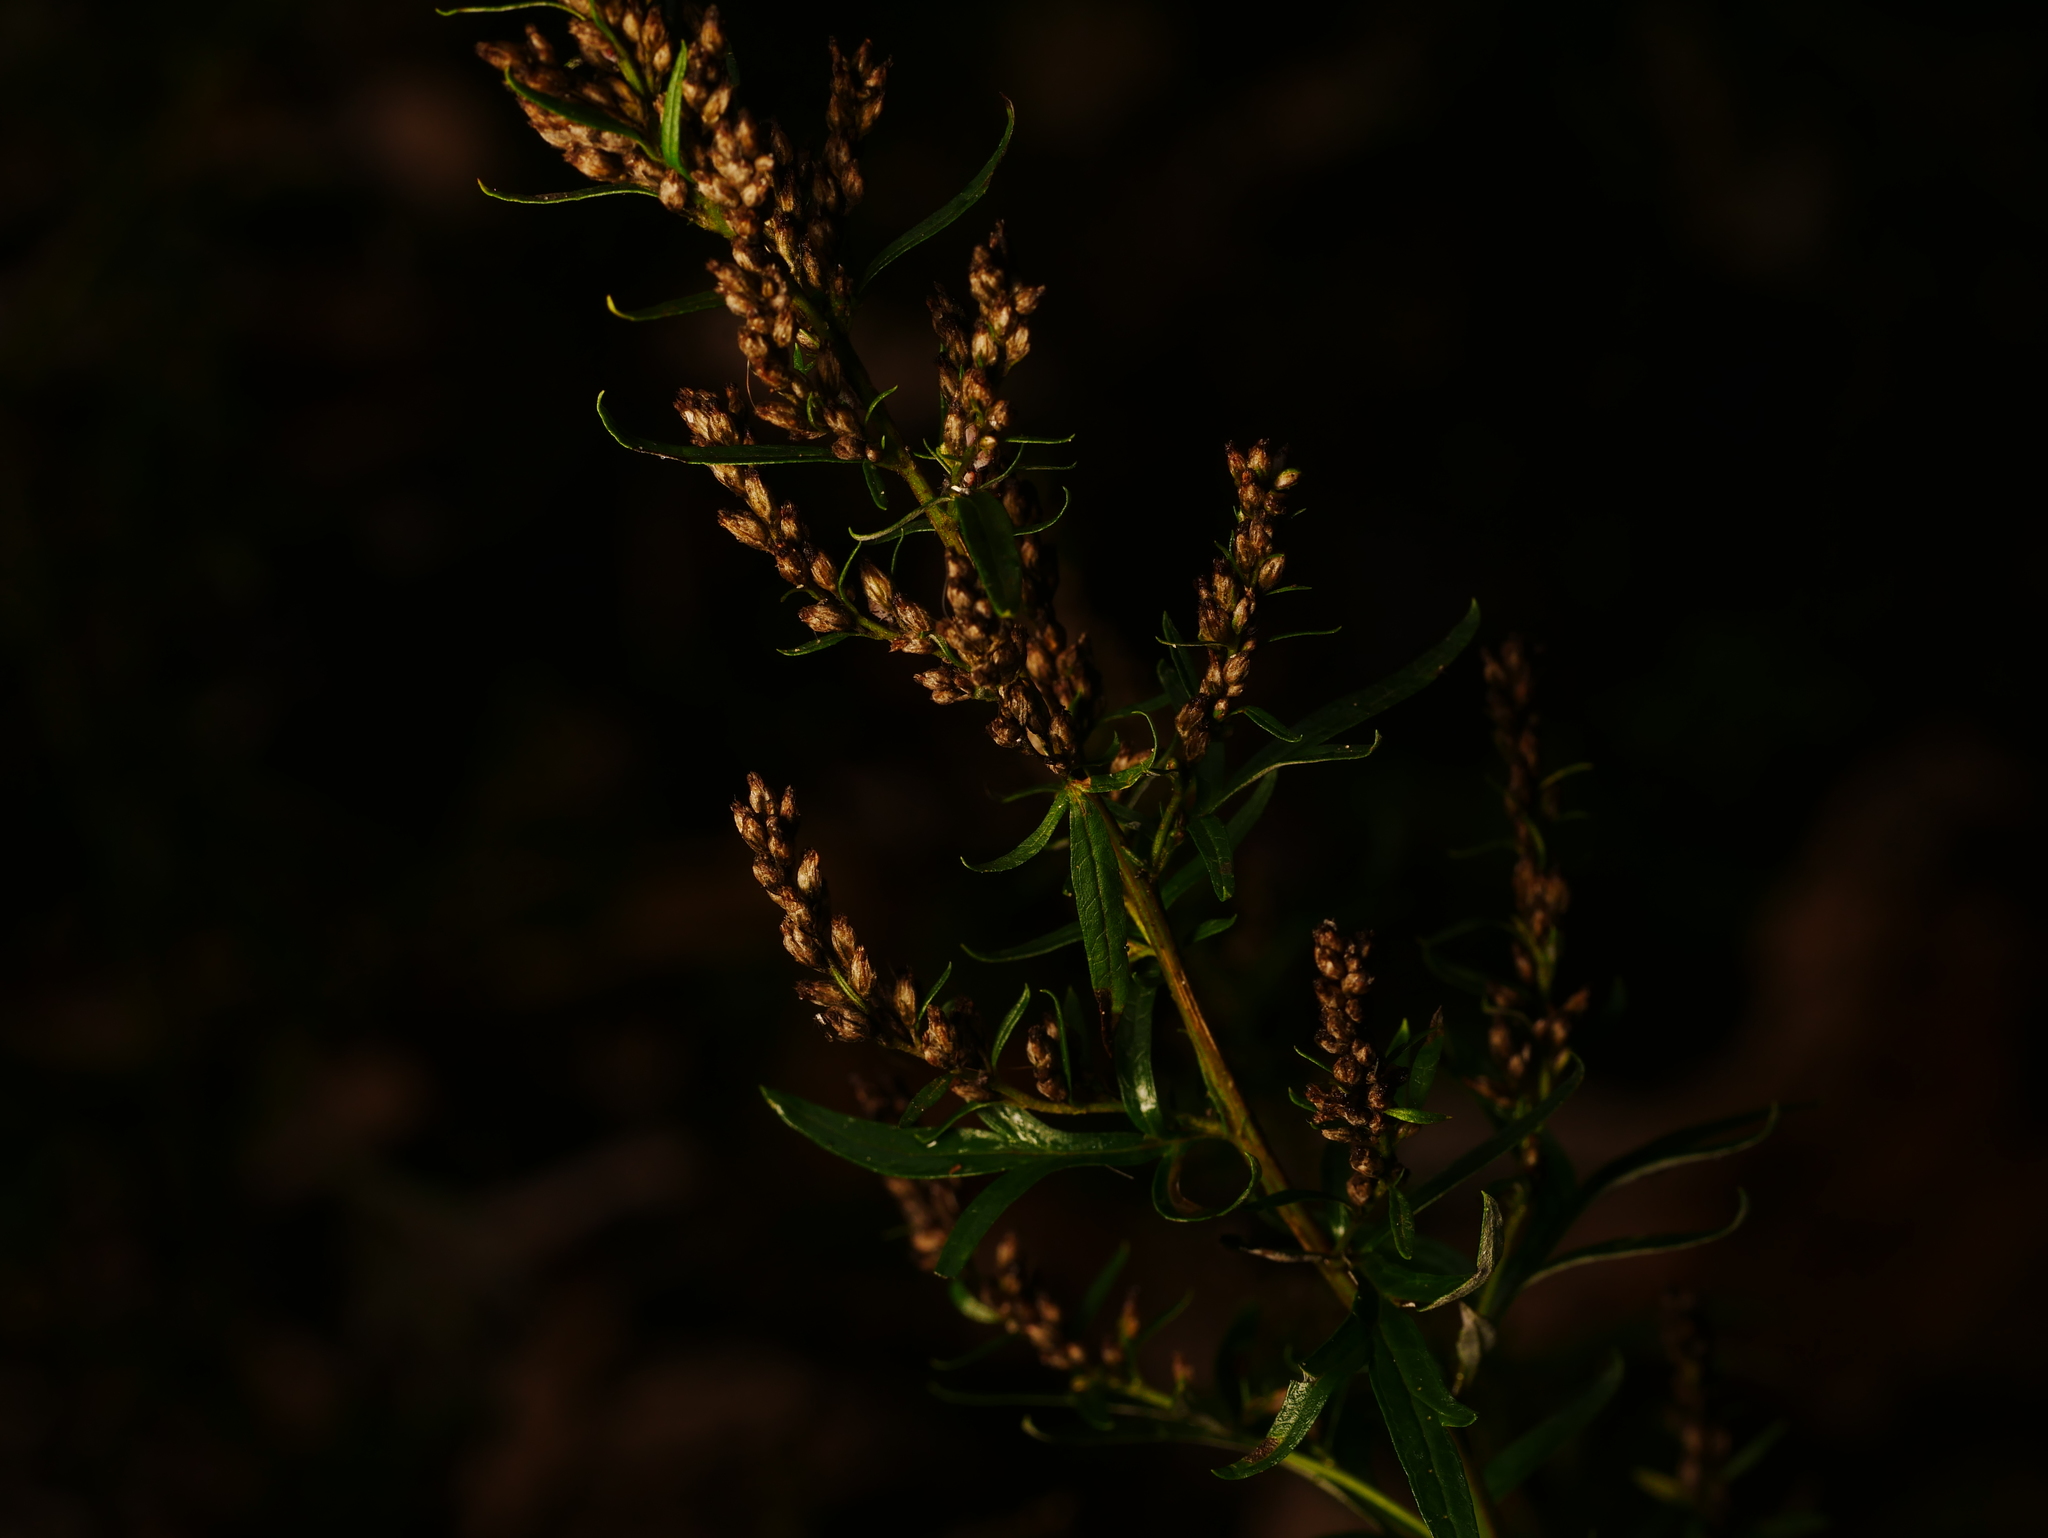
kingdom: Plantae
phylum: Tracheophyta
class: Magnoliopsida
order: Asterales
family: Asteraceae
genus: Artemisia
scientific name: Artemisia vulgaris
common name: Mugwort
